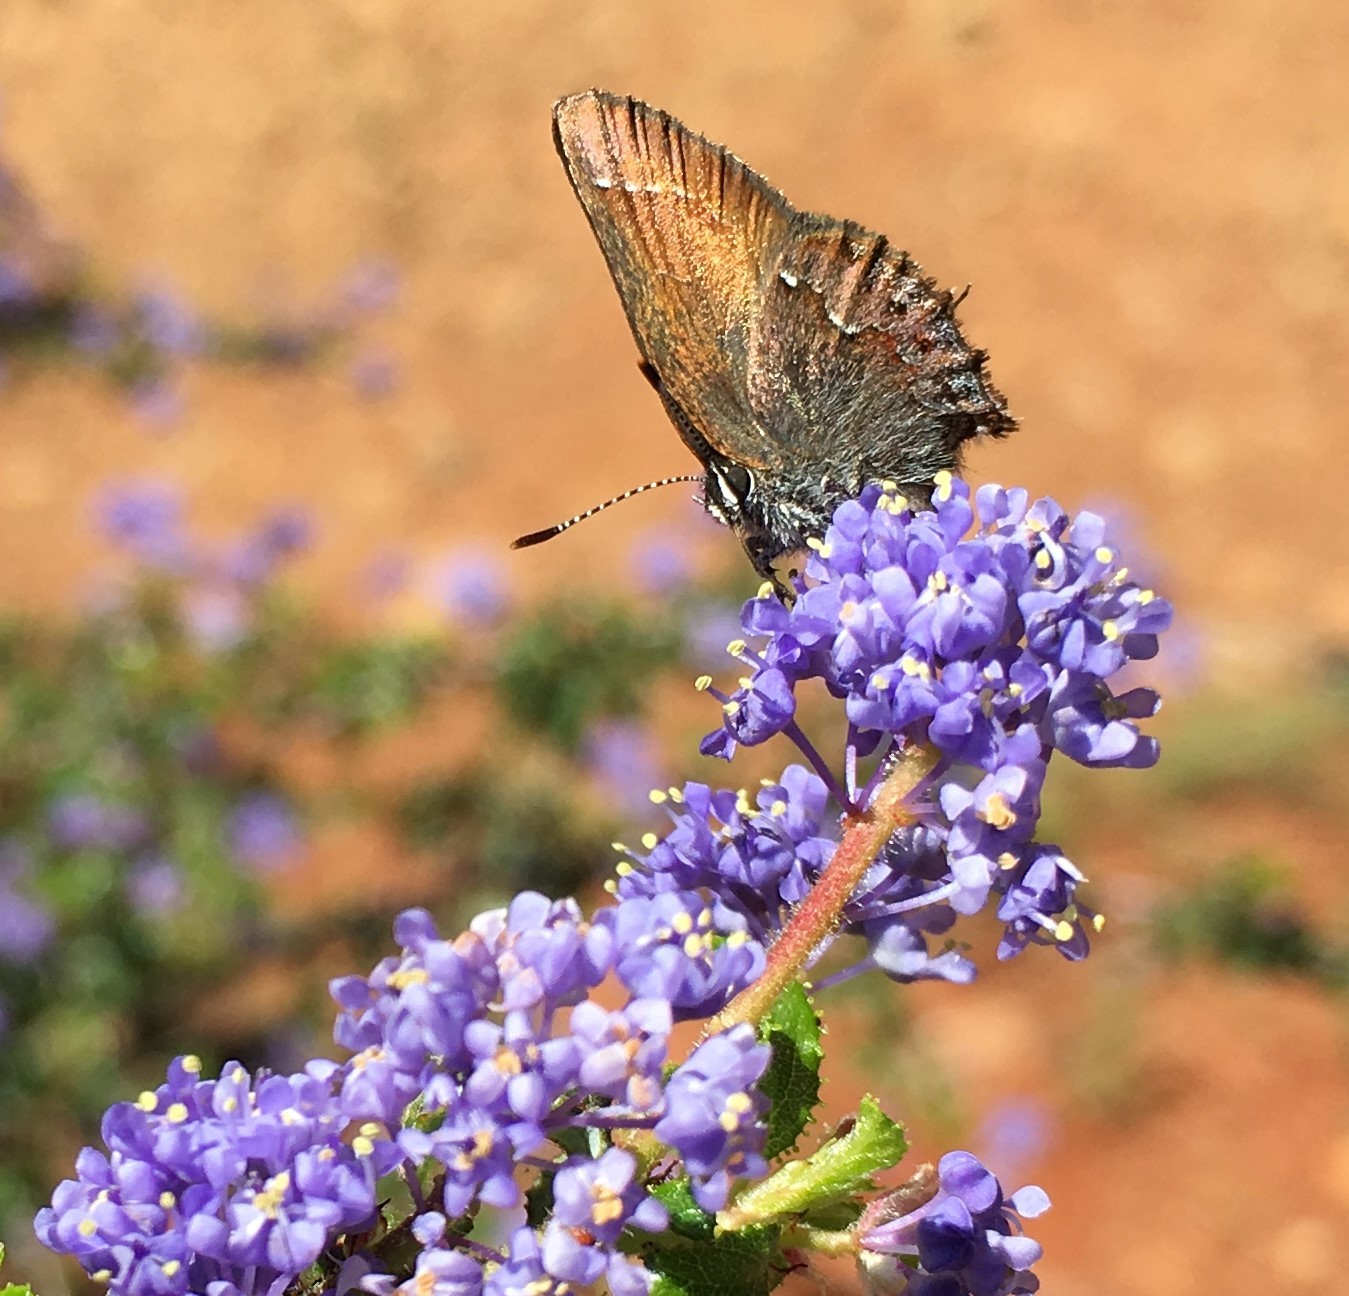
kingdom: Animalia
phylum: Arthropoda
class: Insecta
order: Lepidoptera
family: Lycaenidae
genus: Callophrys
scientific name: Callophrys muiri
